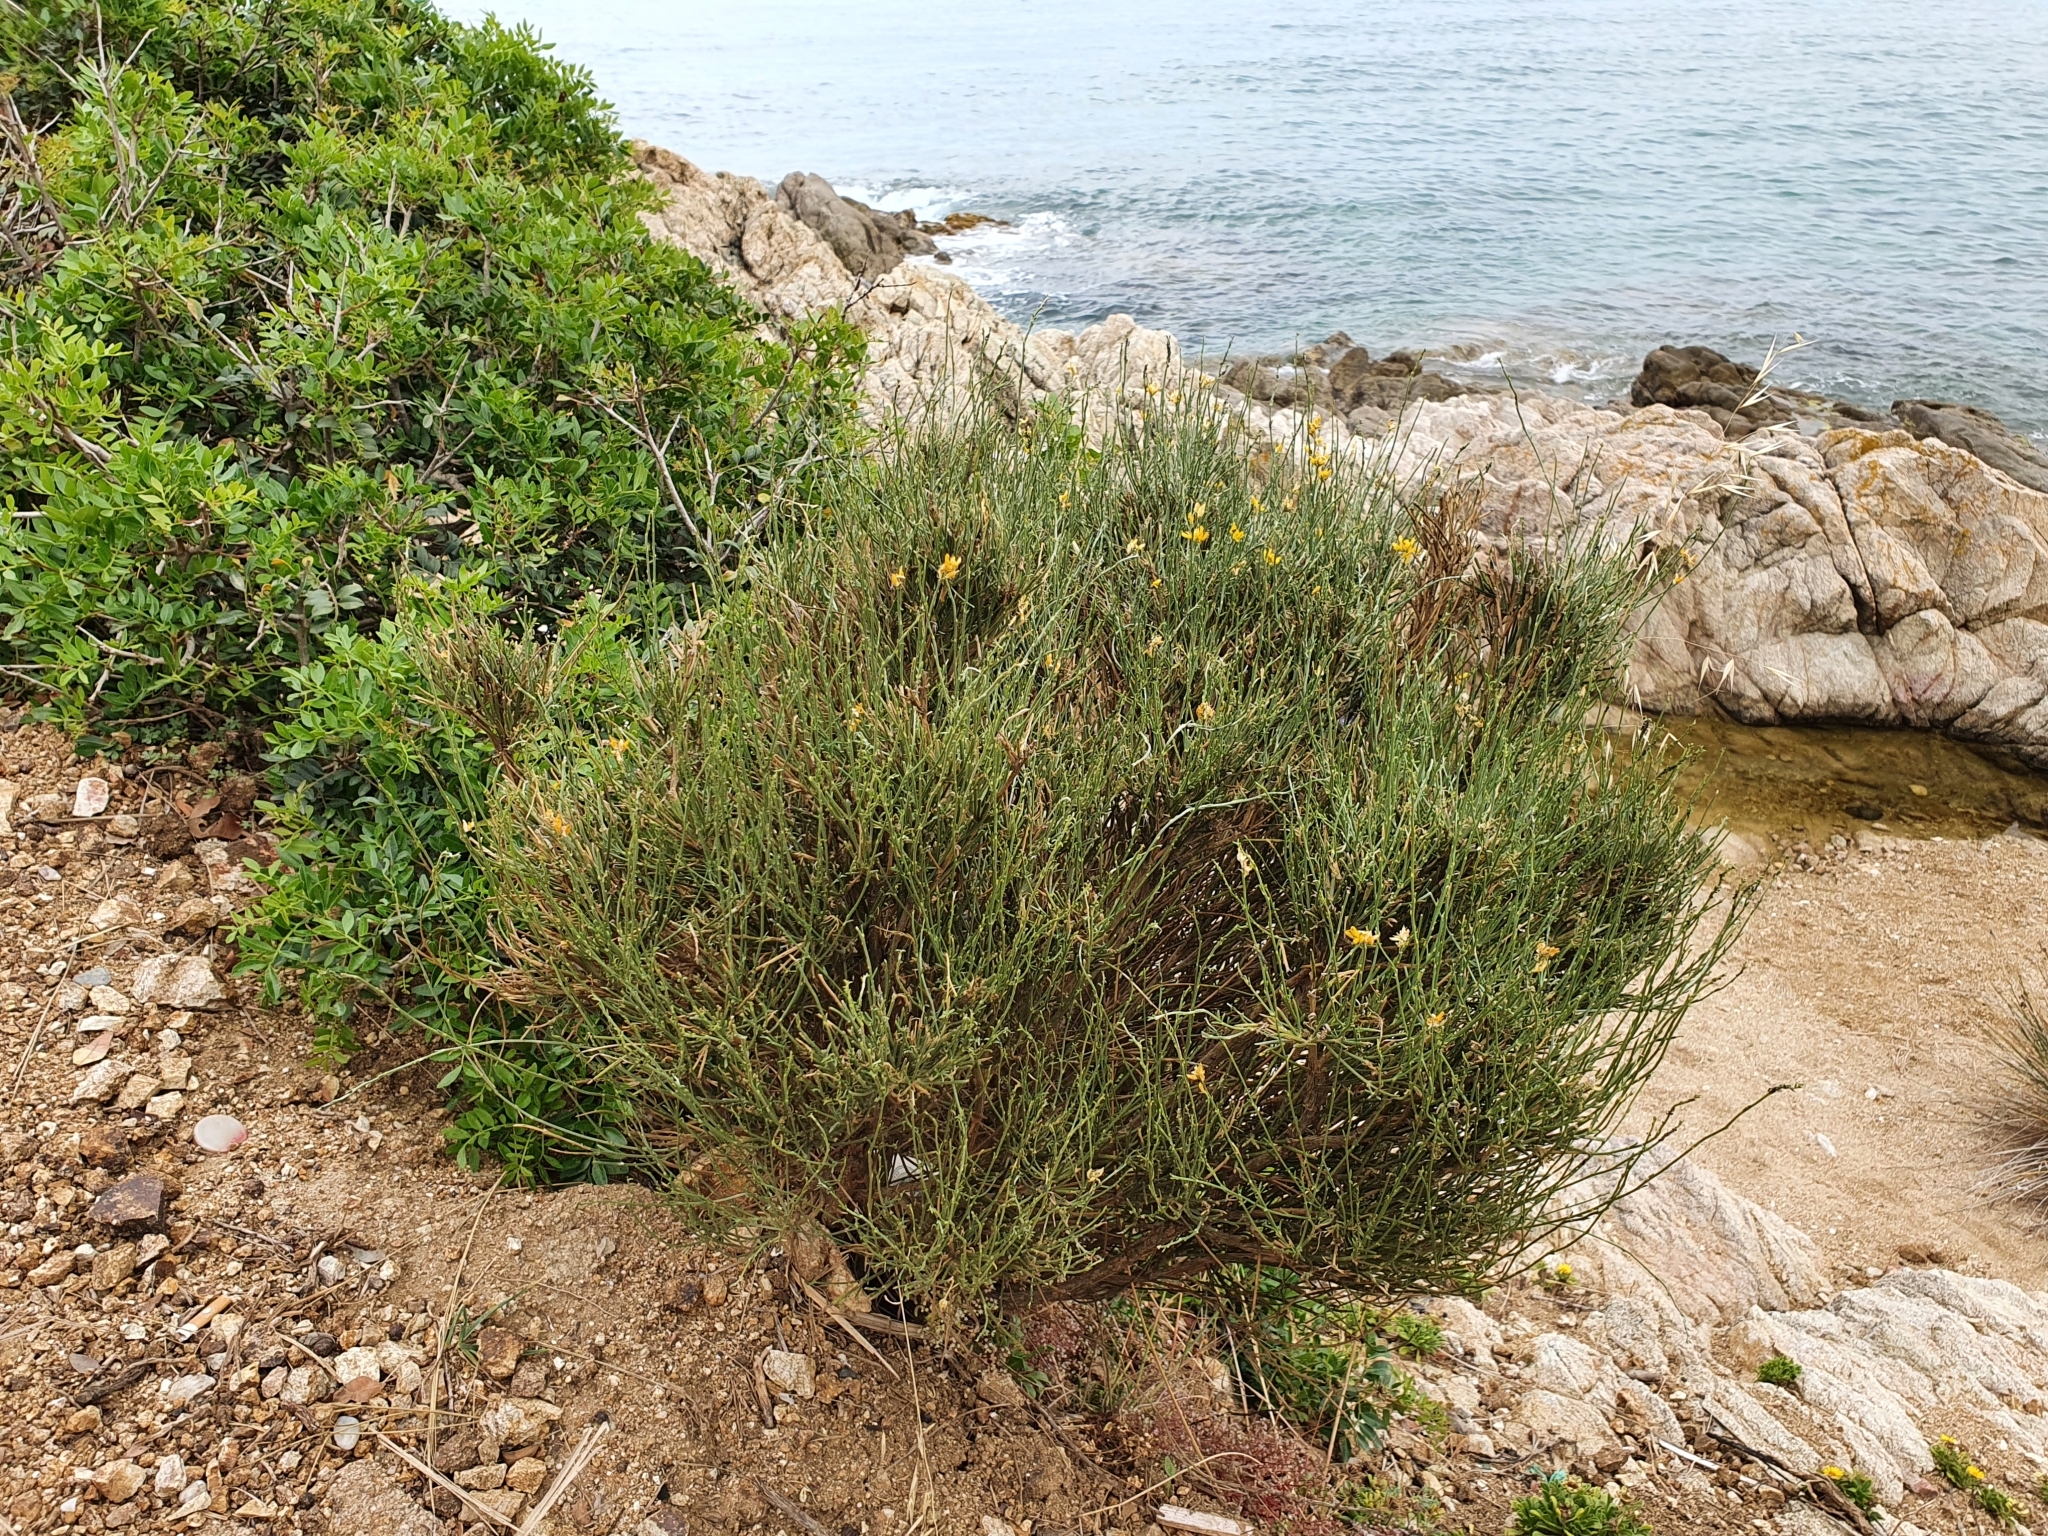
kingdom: Plantae
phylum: Tracheophyta
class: Magnoliopsida
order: Fabales
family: Fabaceae
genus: Genista
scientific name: Genista numidica
